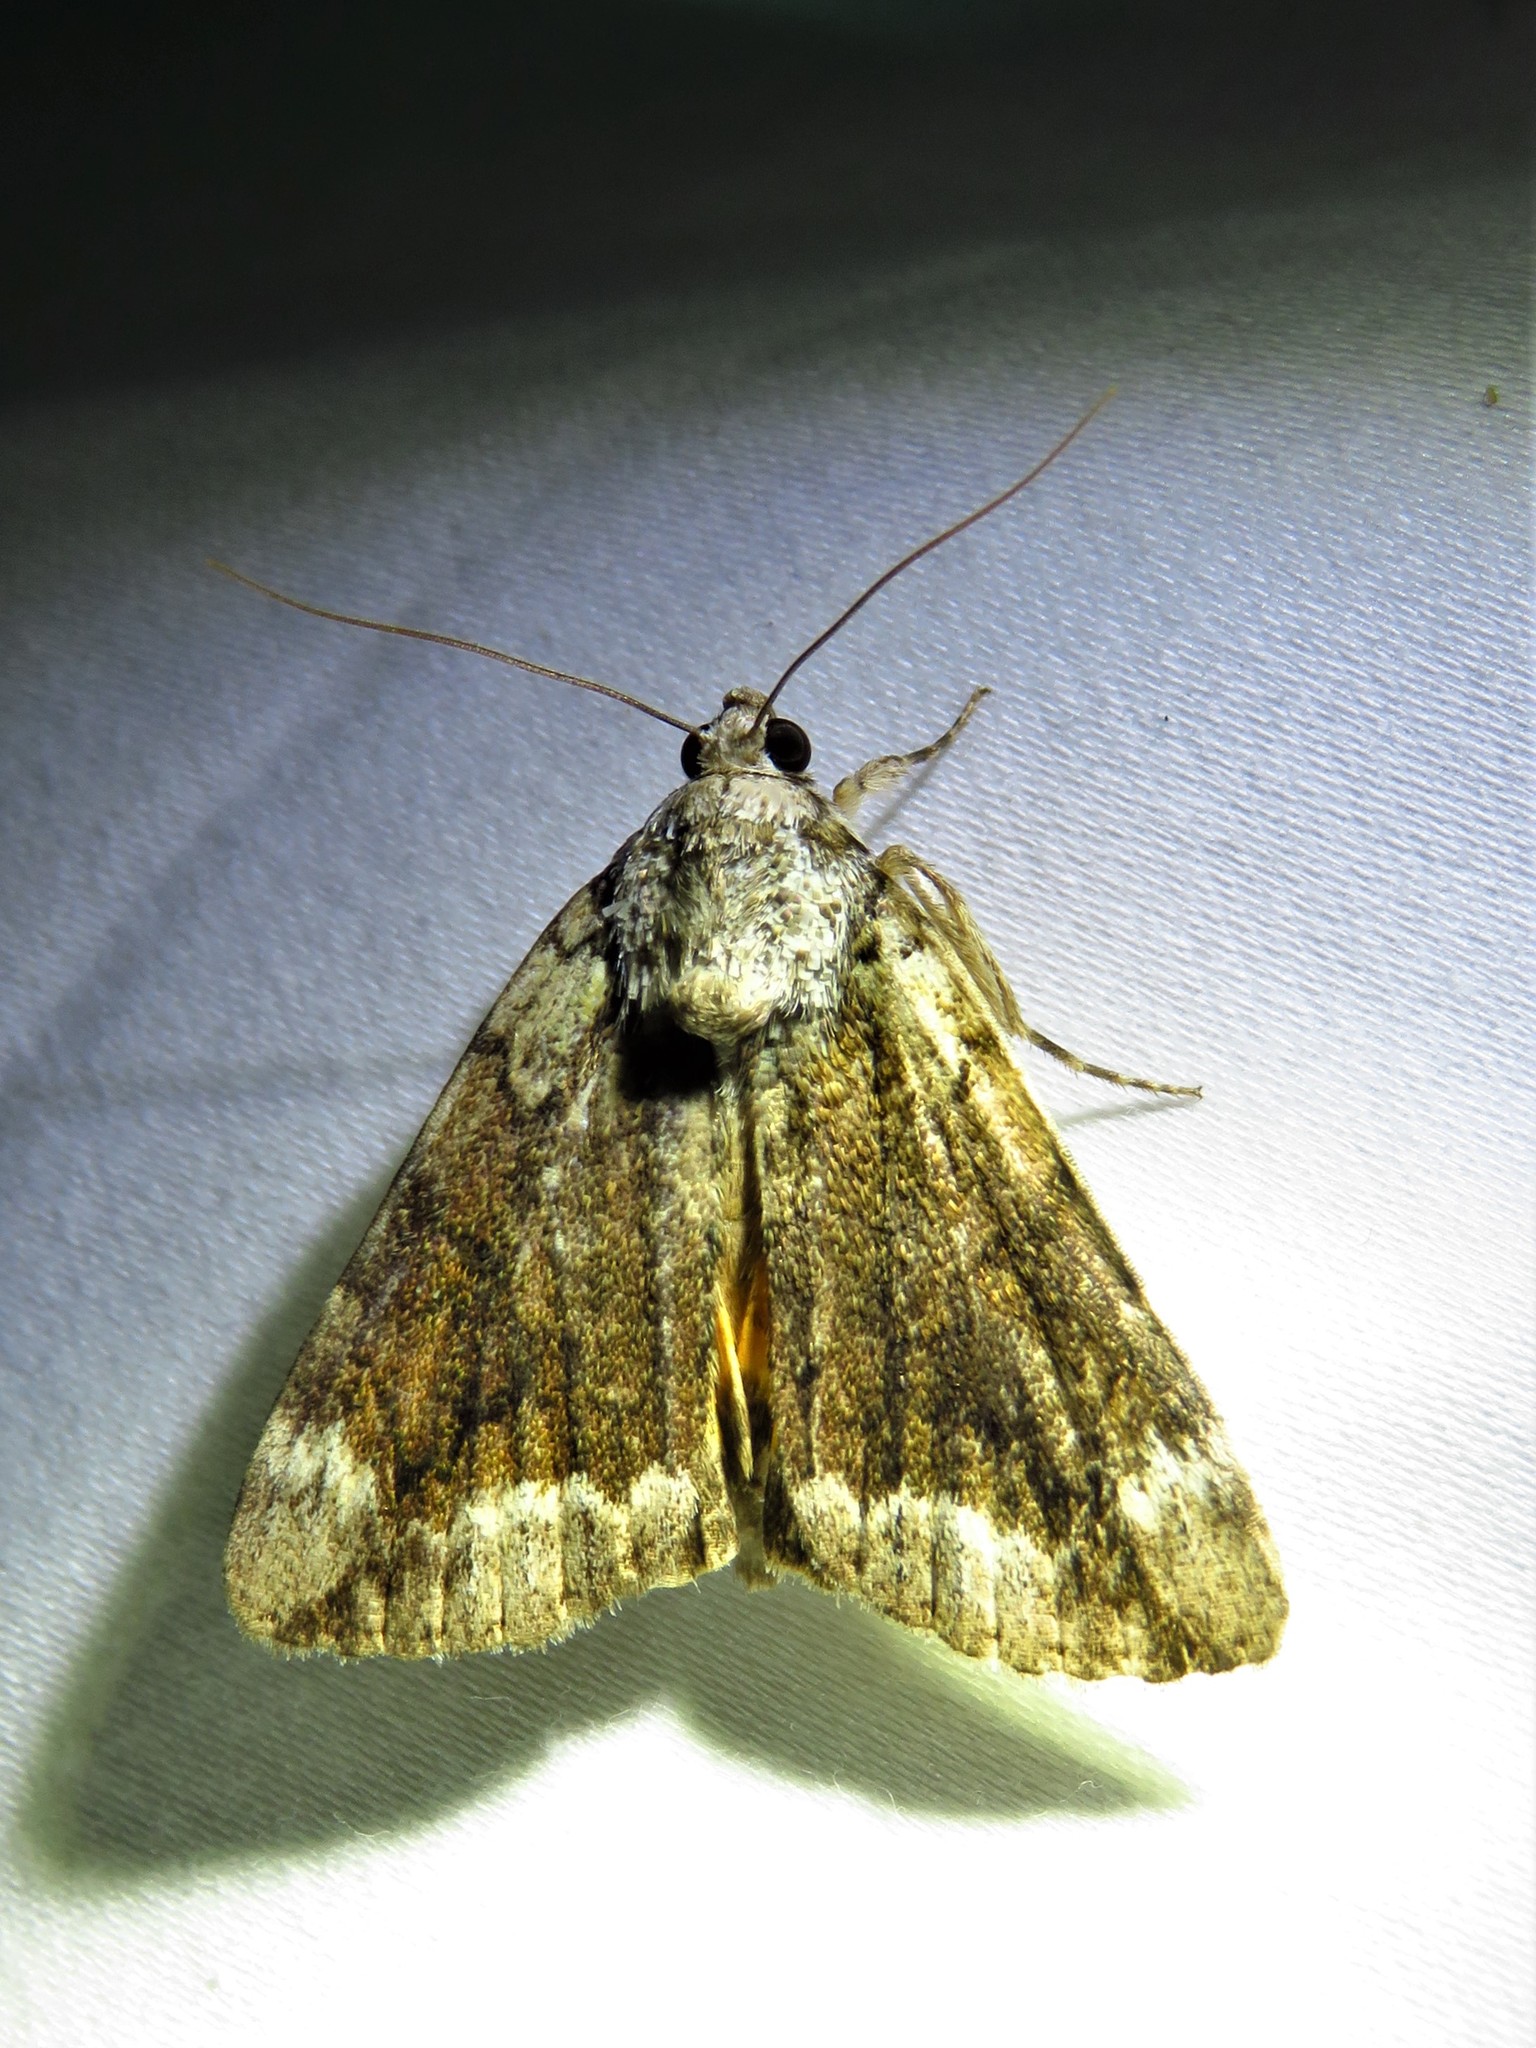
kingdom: Animalia
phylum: Arthropoda
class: Insecta
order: Lepidoptera
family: Erebidae
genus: Catocala
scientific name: Catocala micronympha
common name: Little nymph underwing
